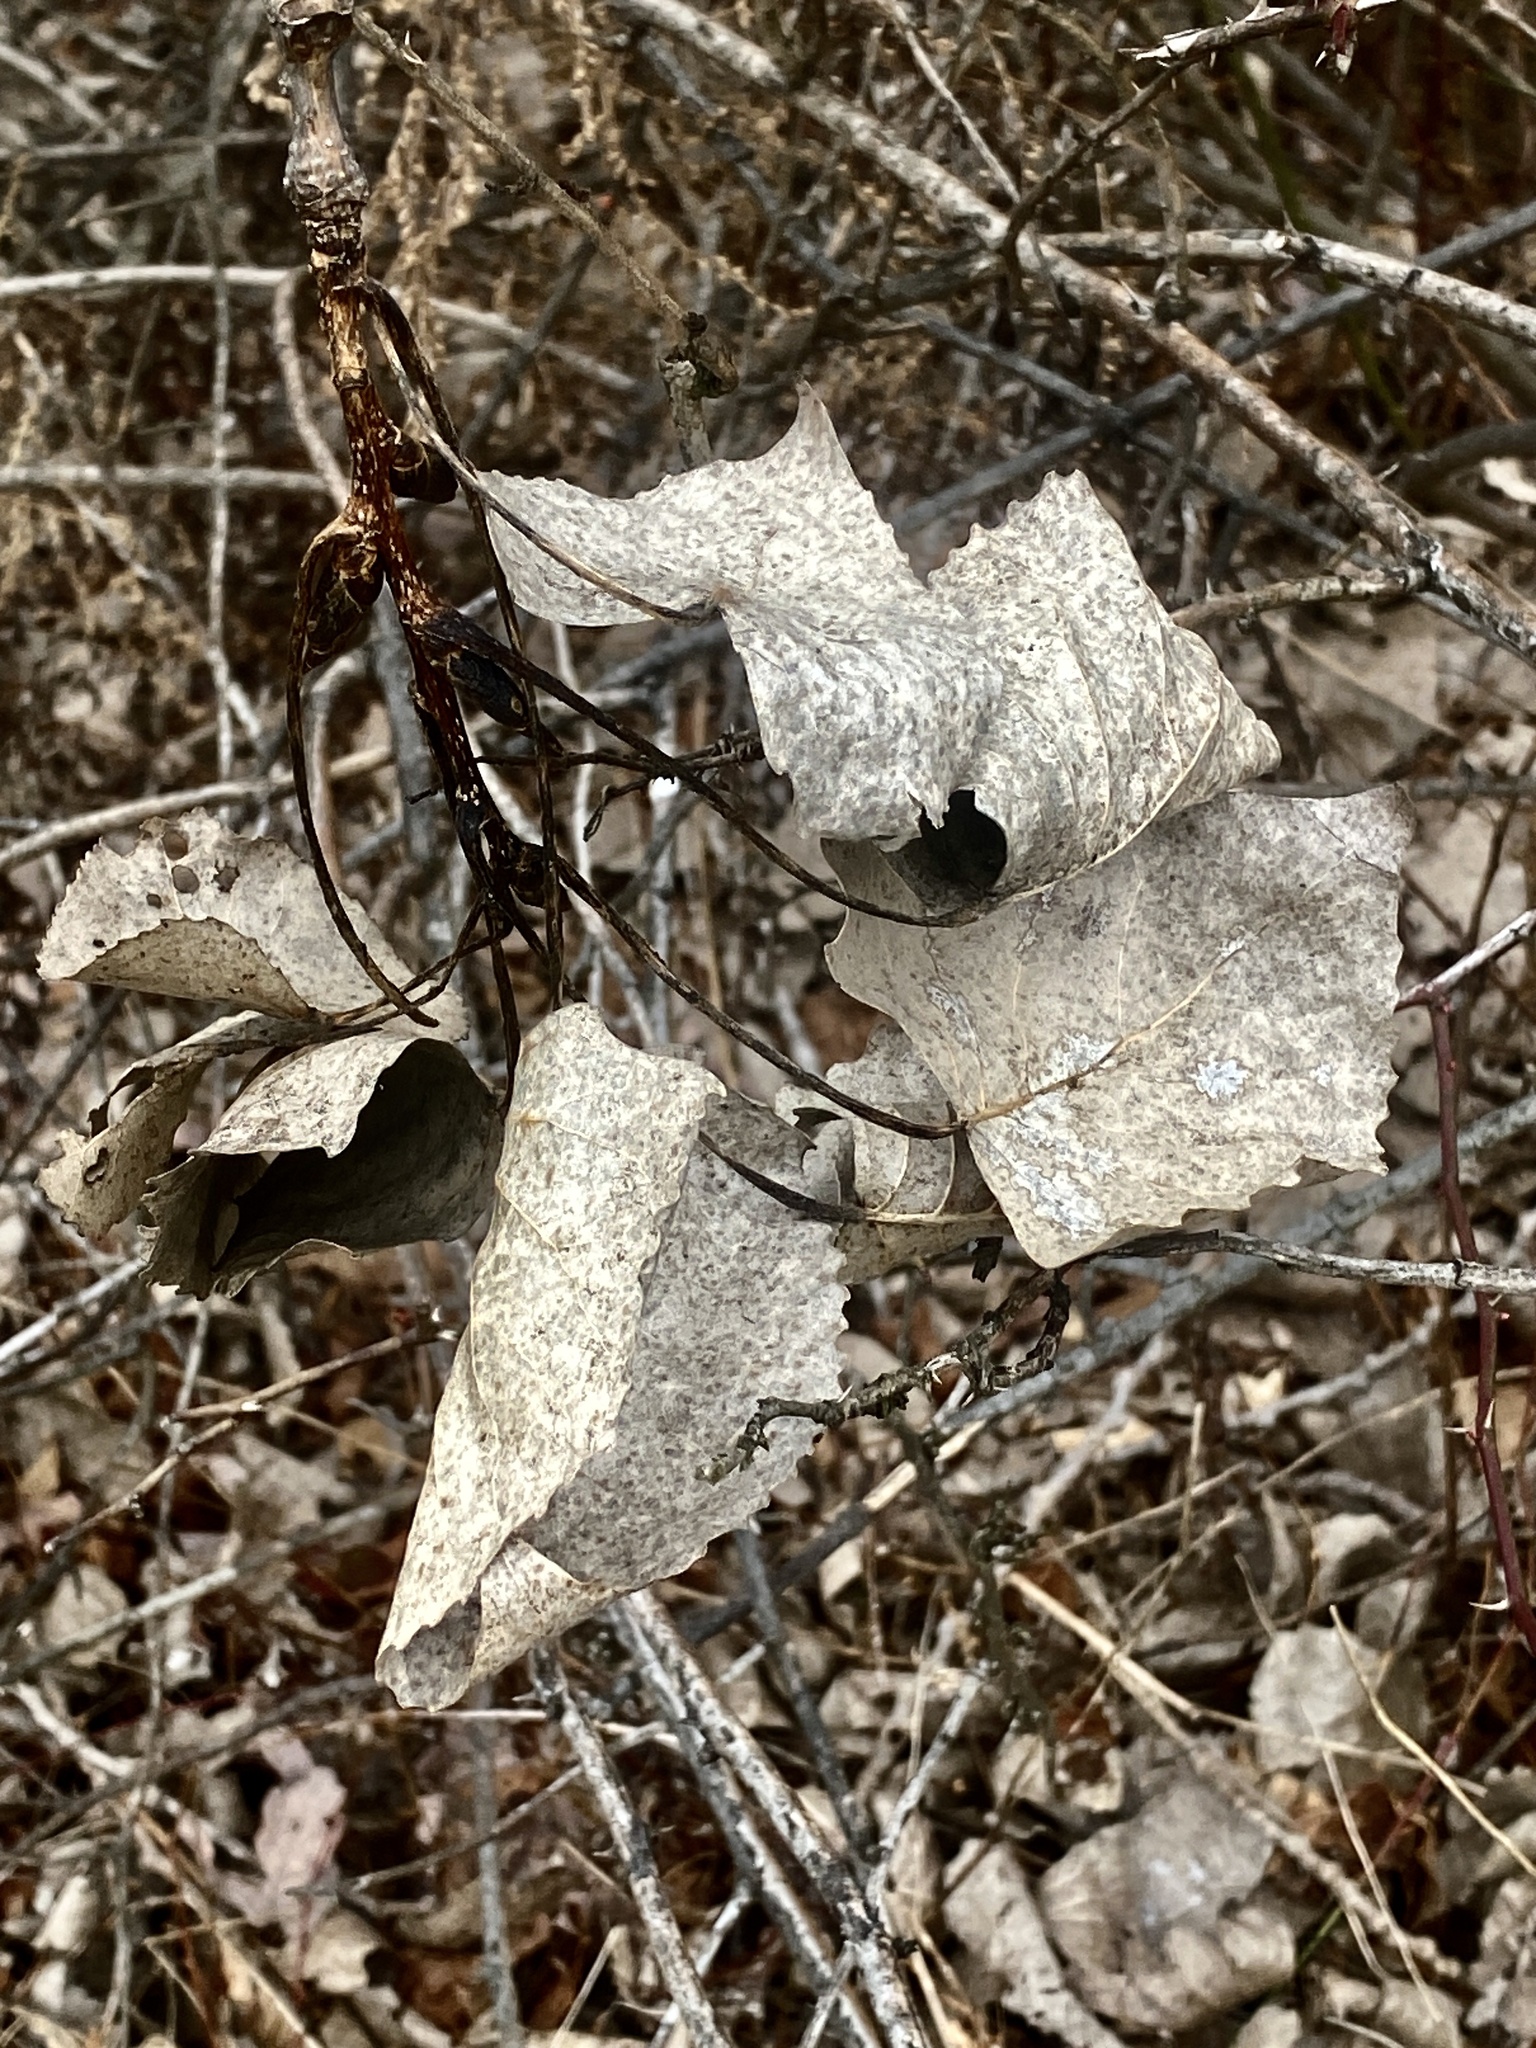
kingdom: Plantae
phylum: Tracheophyta
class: Magnoliopsida
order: Malpighiales
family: Salicaceae
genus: Populus
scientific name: Populus deltoides
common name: Eastern cottonwood
